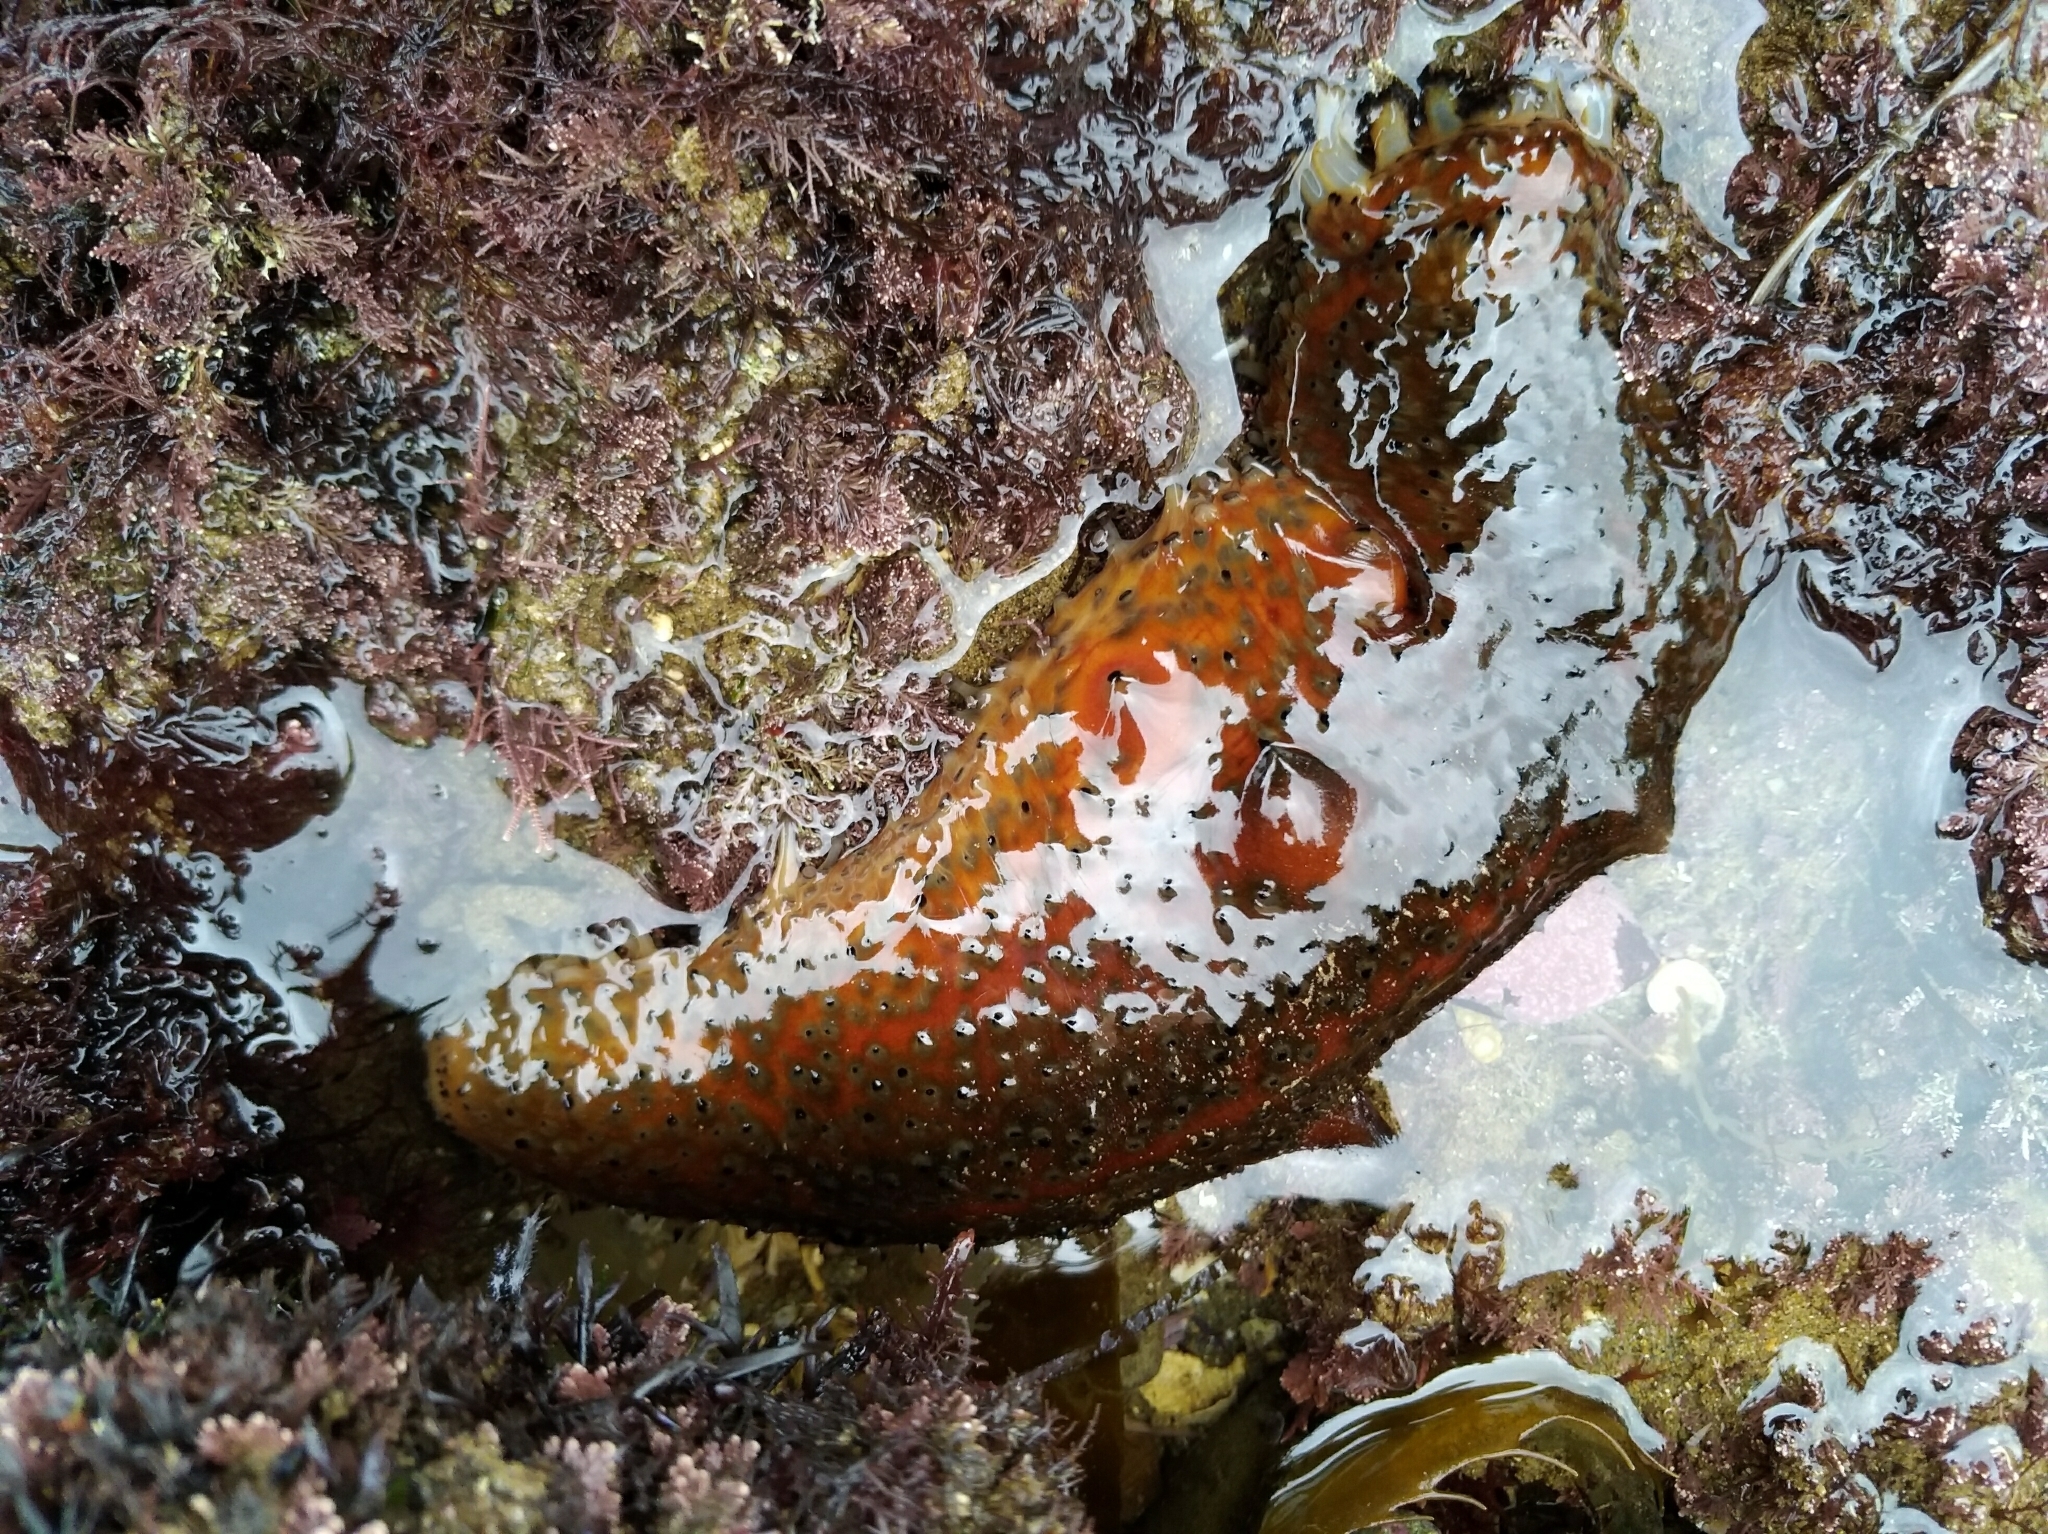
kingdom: Animalia
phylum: Echinodermata
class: Holothuroidea
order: Synallactida
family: Stichopodidae
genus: Apostichopus
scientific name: Apostichopus parvimensis
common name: Warty sea cucumber
